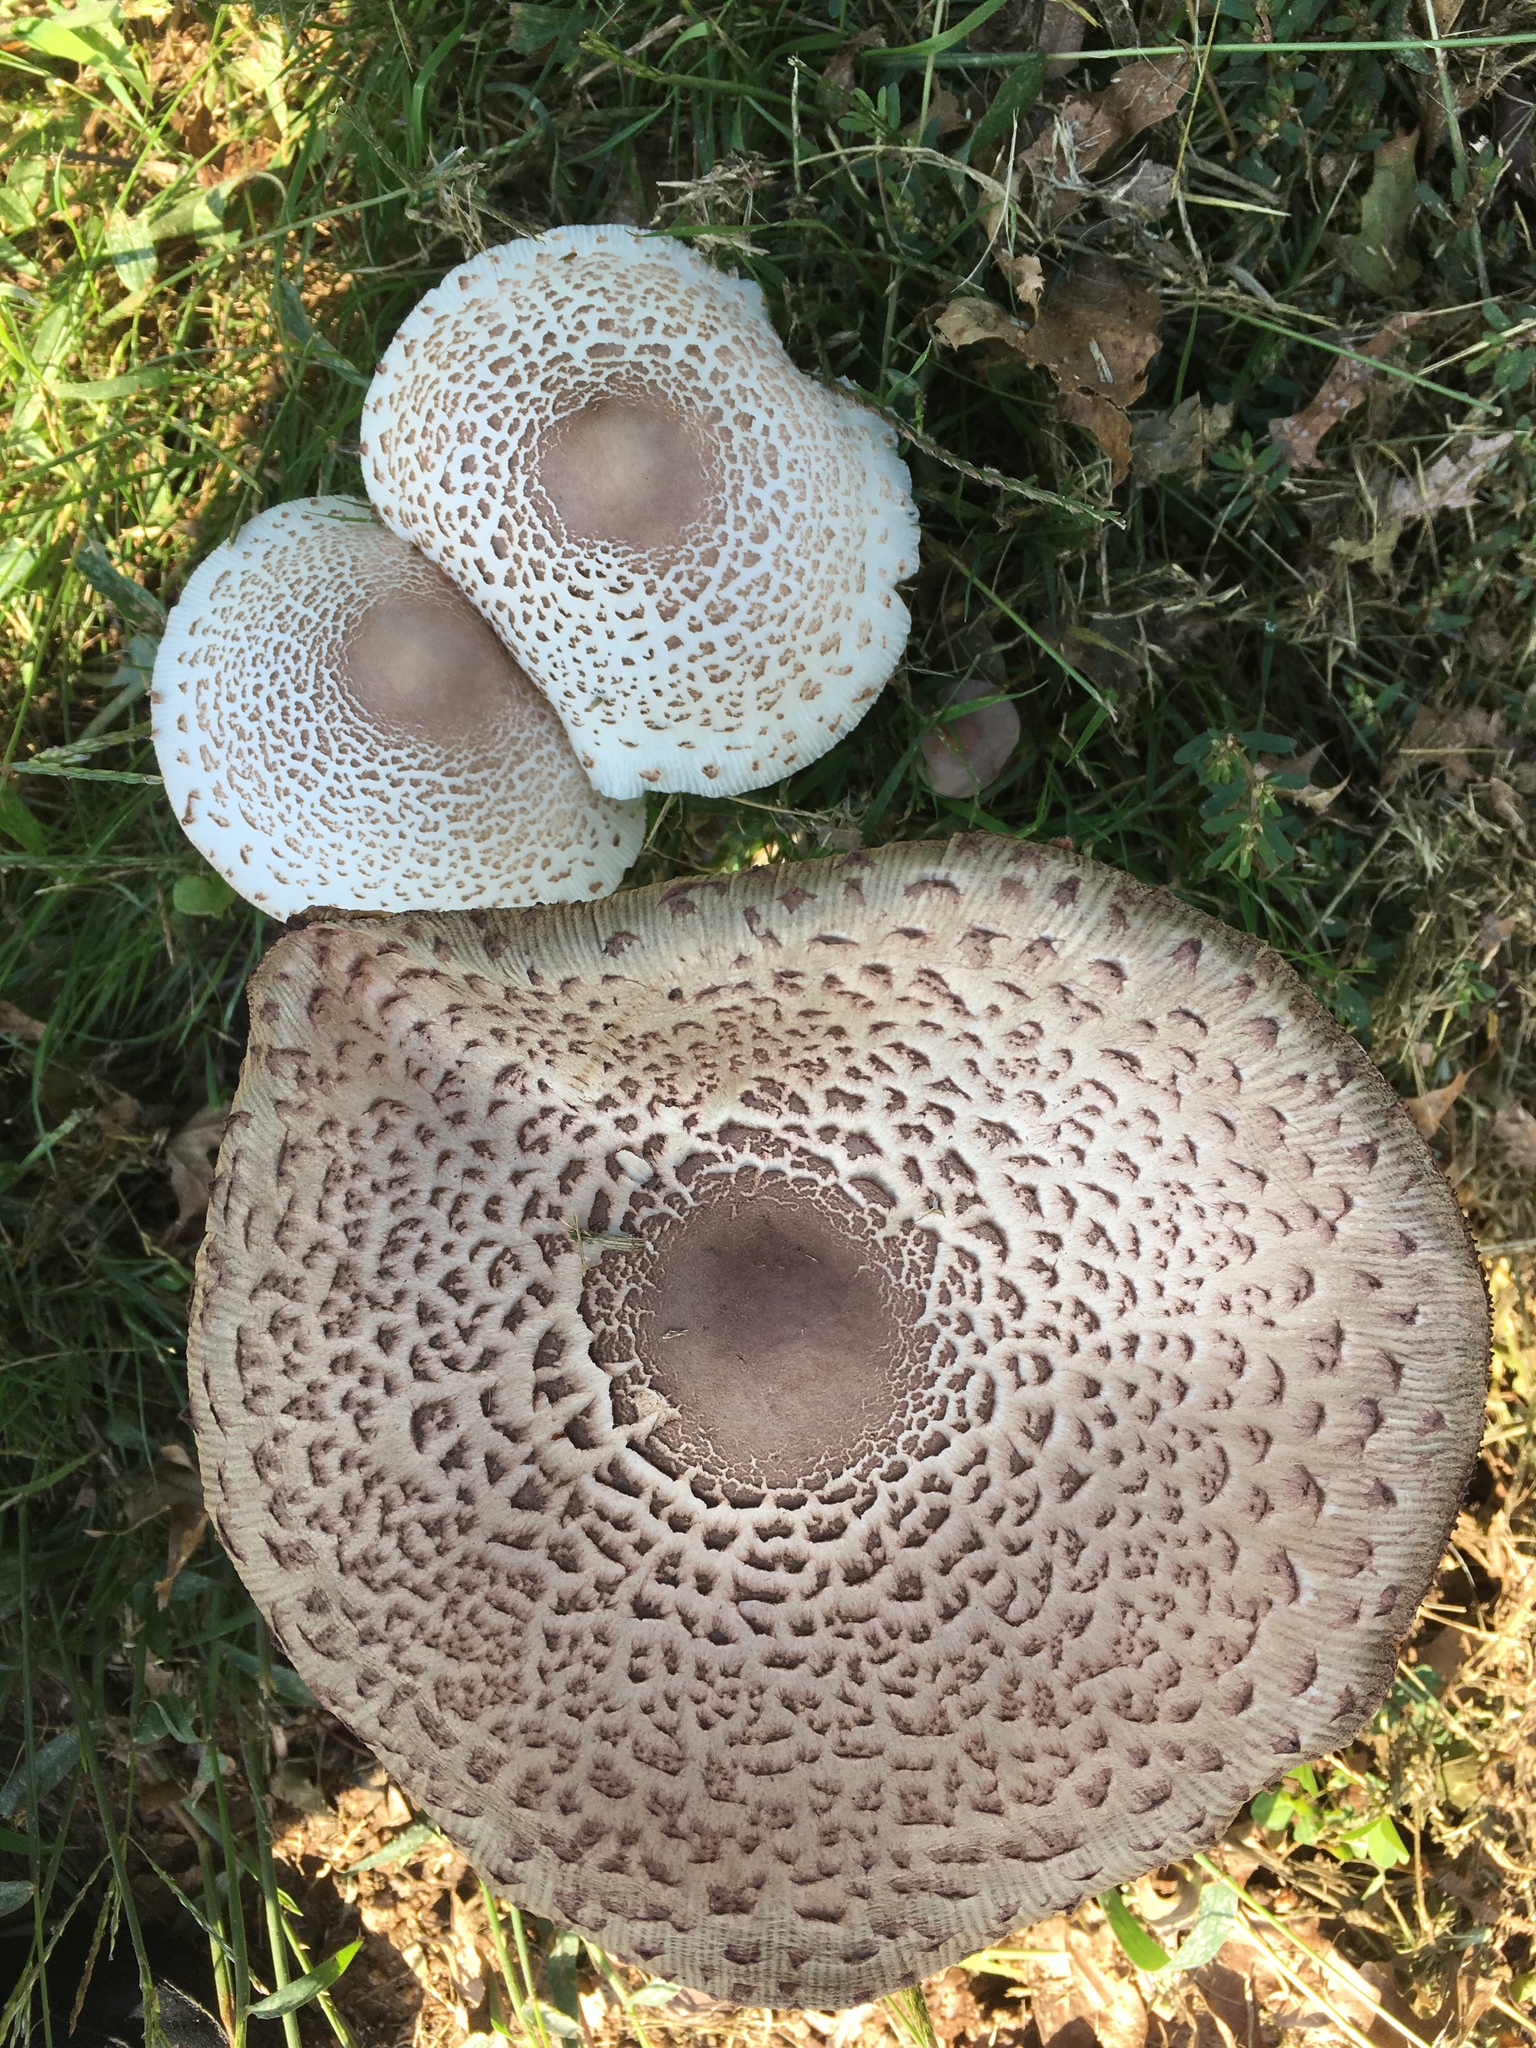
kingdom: Fungi
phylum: Basidiomycota
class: Agaricomycetes
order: Agaricales
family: Agaricaceae
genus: Leucoagaricus
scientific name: Leucoagaricus americanus
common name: Reddening lepiota
